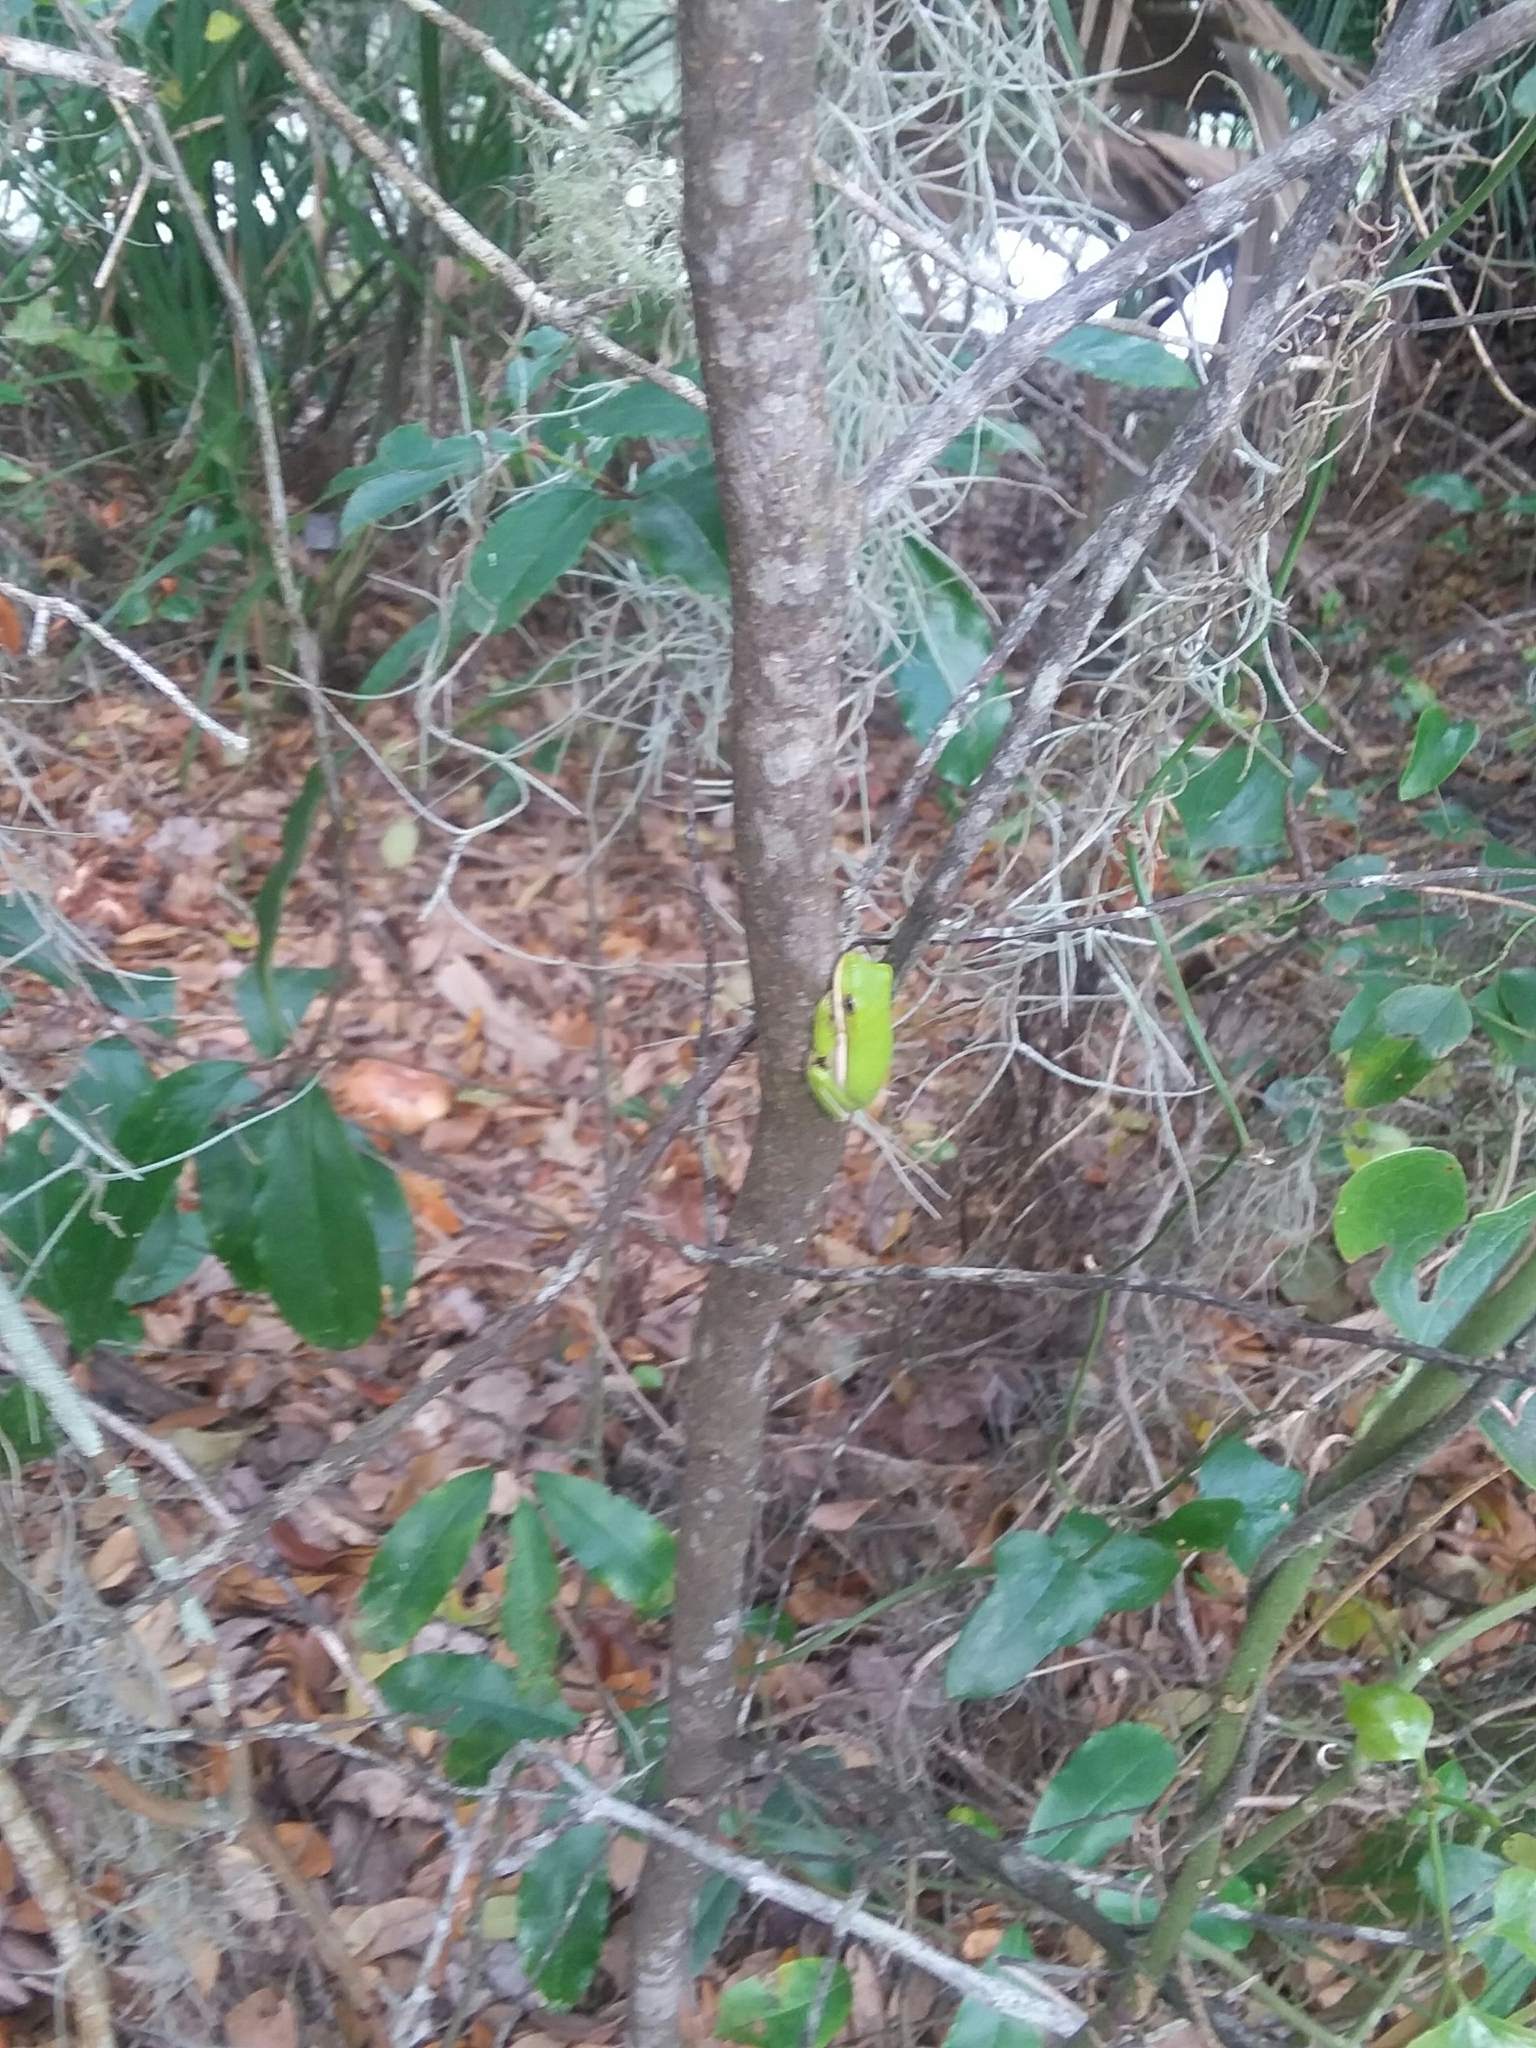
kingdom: Animalia
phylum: Chordata
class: Amphibia
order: Anura
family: Hylidae
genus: Dryophytes
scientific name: Dryophytes cinereus
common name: Green treefrog
